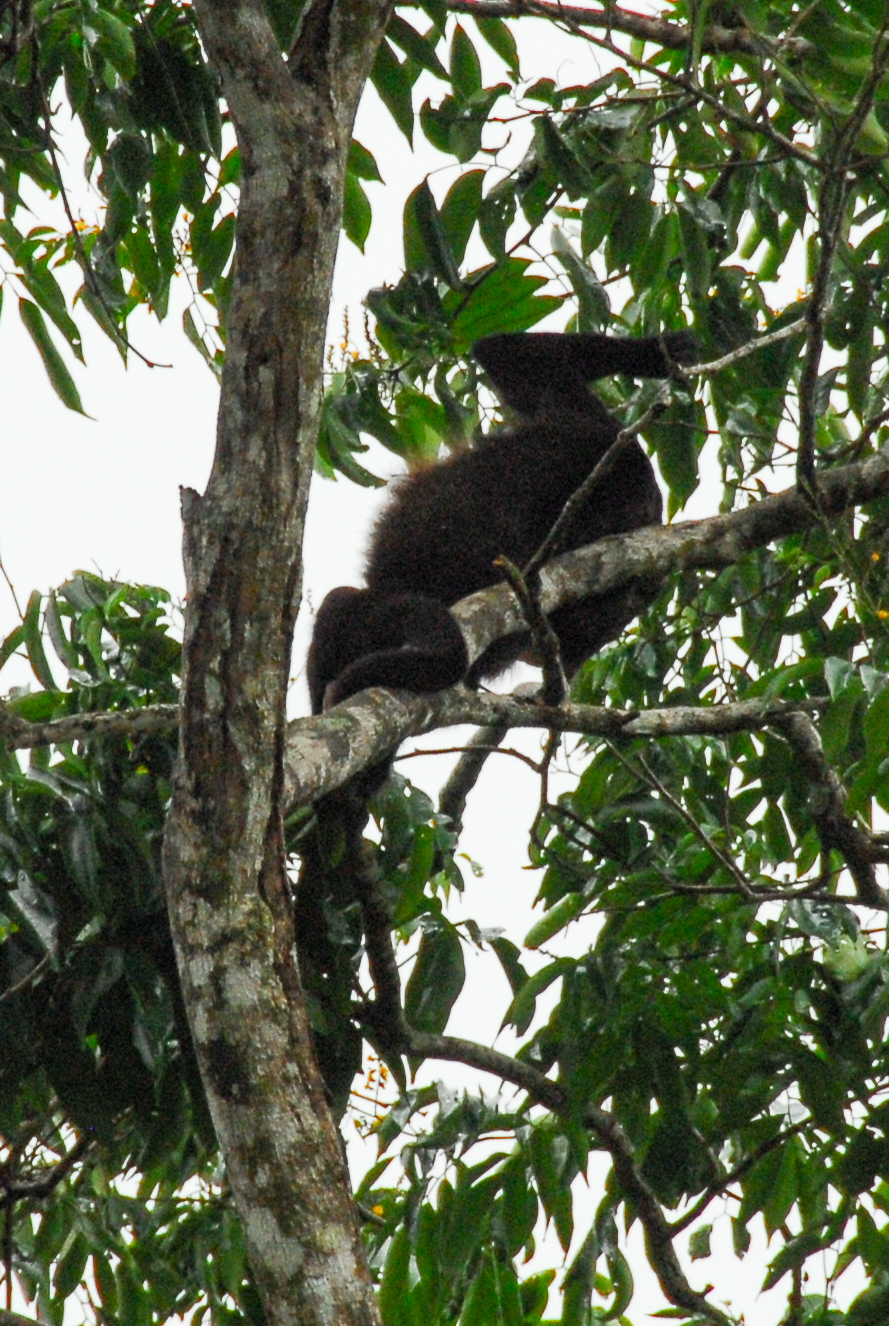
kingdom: Animalia
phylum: Chordata
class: Mammalia
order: Primates
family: Atelidae
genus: Alouatta
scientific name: Alouatta palliata
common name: Mantled howler
